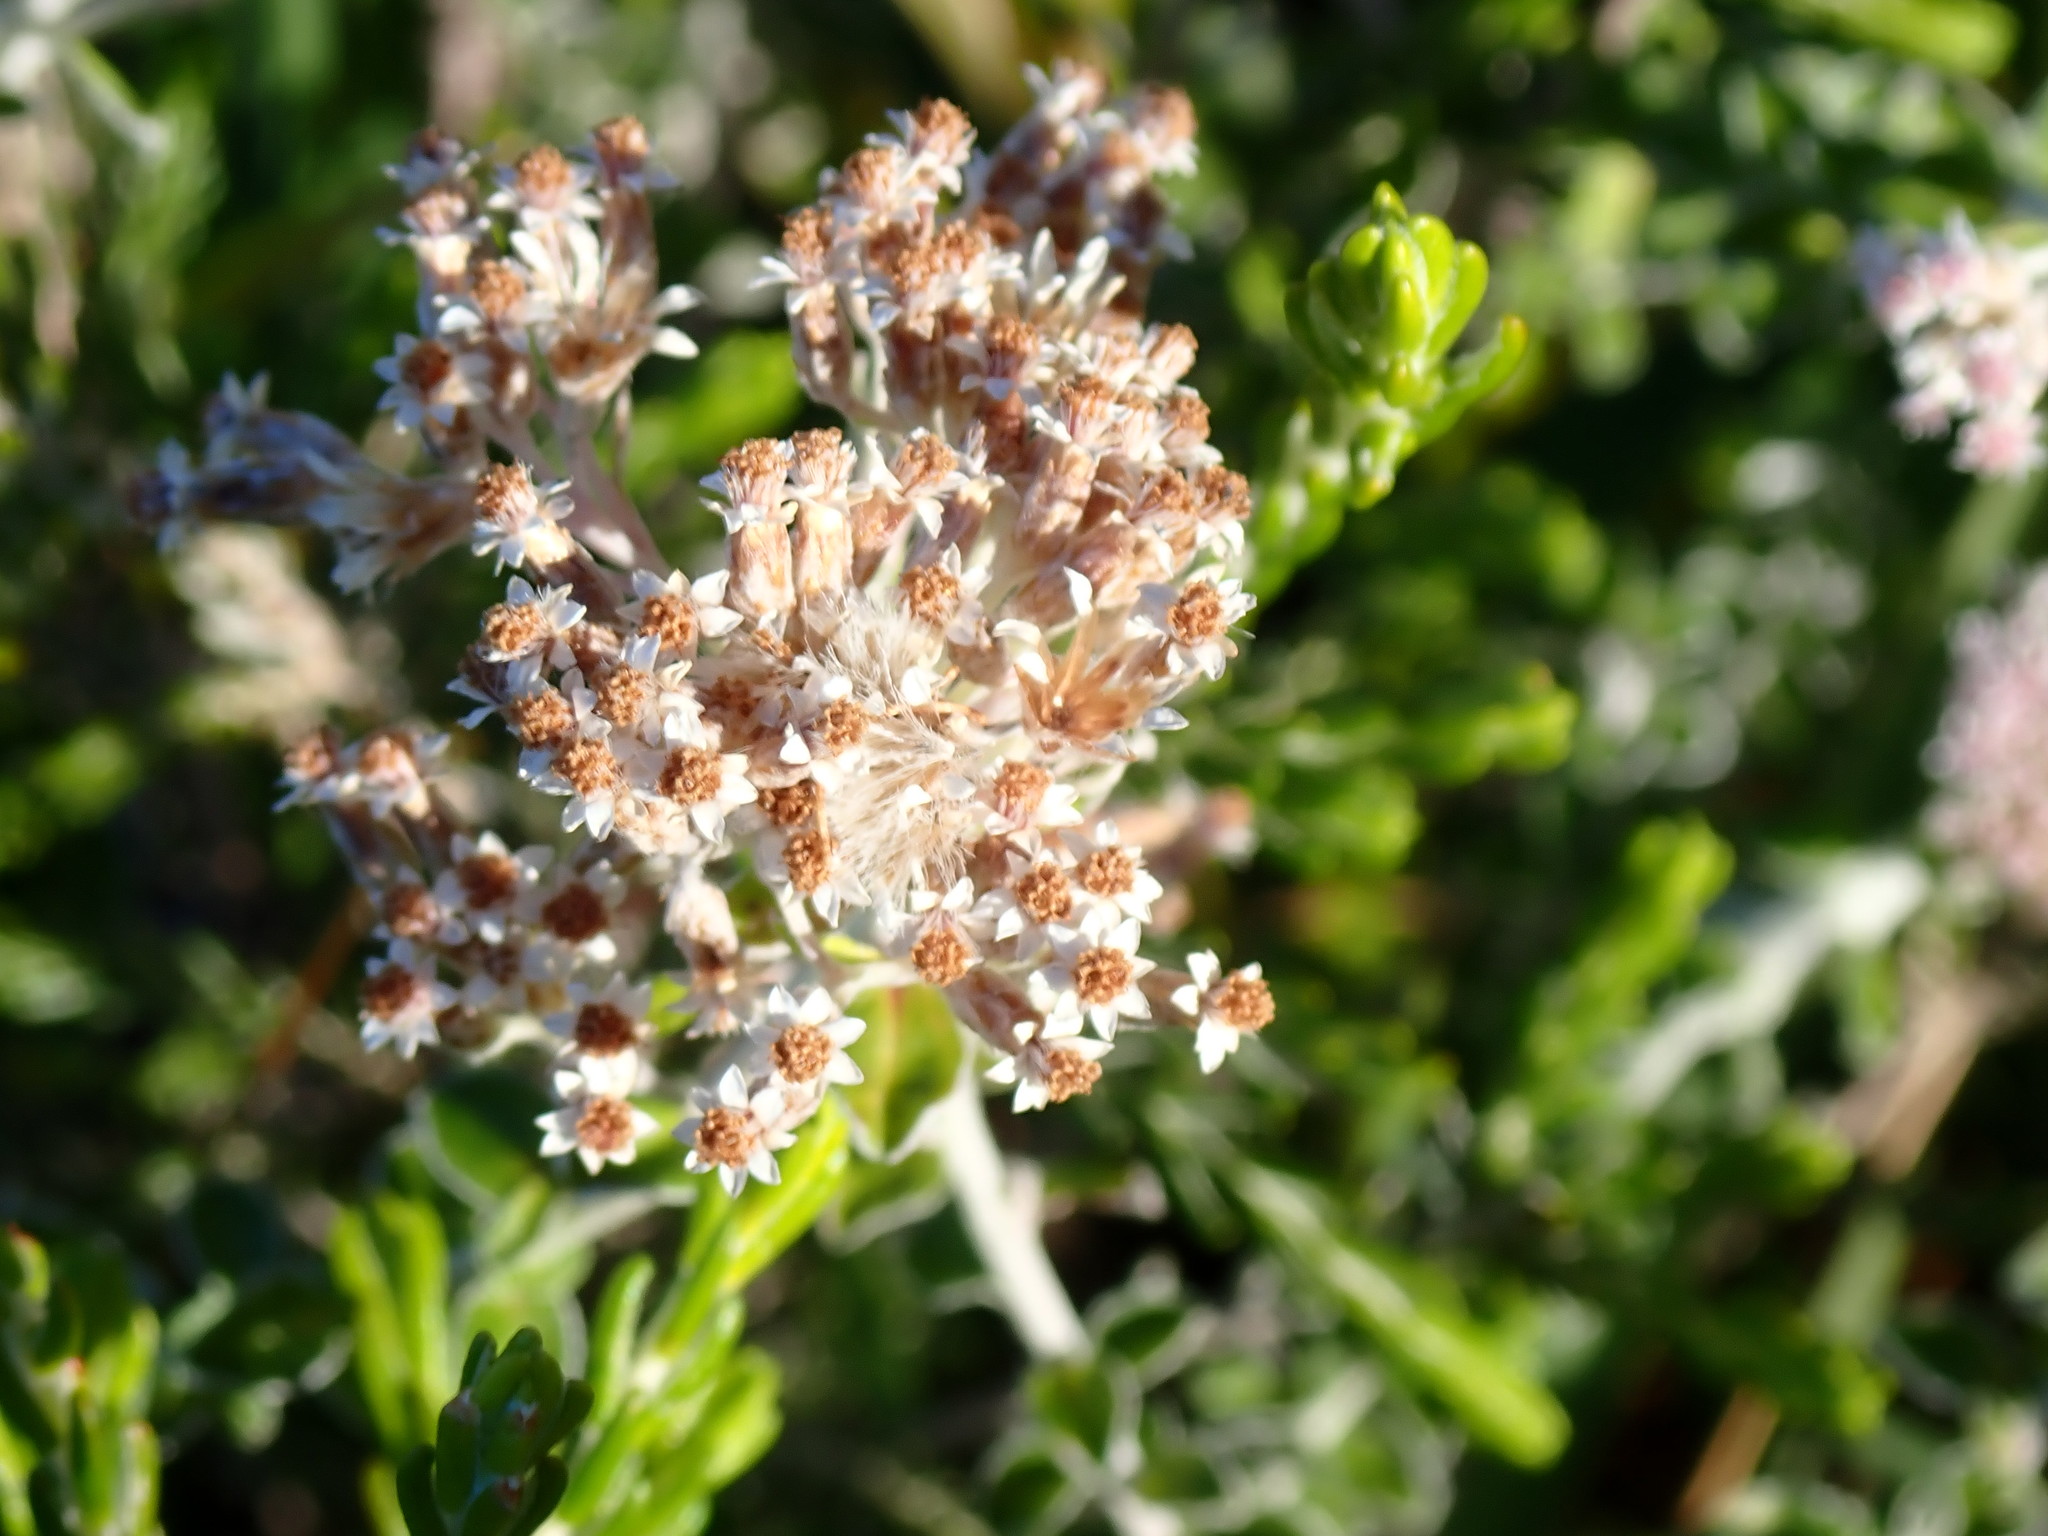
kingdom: Plantae
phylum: Tracheophyta
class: Magnoliopsida
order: Asterales
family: Asteraceae
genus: Plecostachys
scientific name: Plecostachys serpyllifolia
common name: Petite licorice
